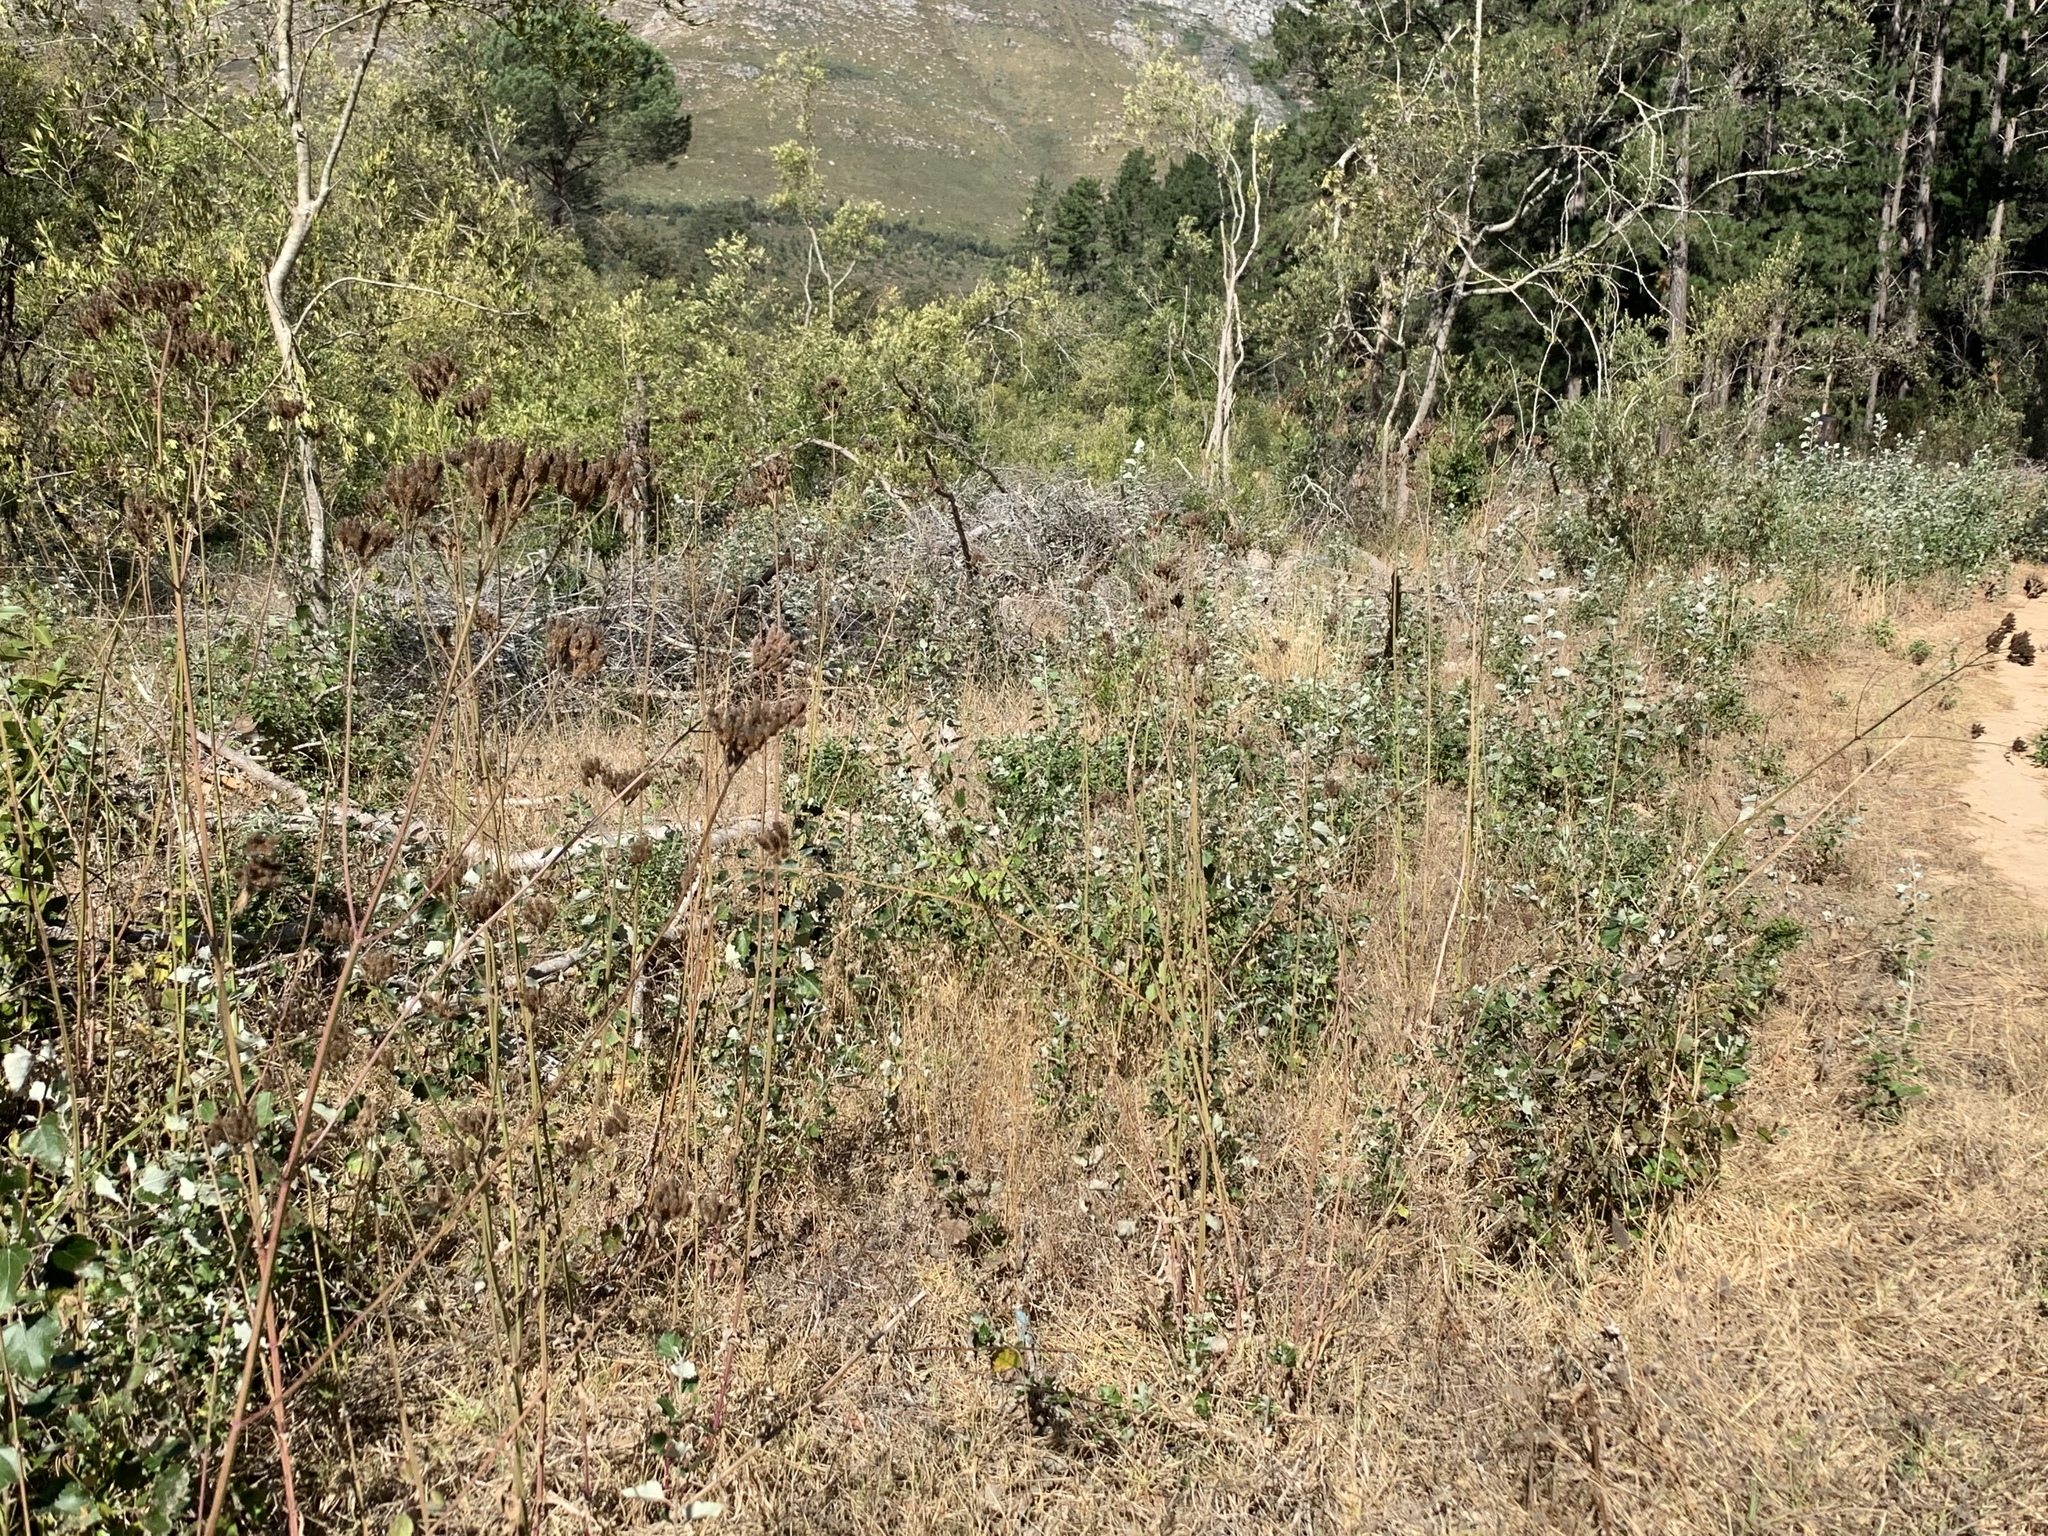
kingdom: Plantae
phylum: Tracheophyta
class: Magnoliopsida
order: Malpighiales
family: Salicaceae
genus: Populus
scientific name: Populus canescens
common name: Gray poplar
